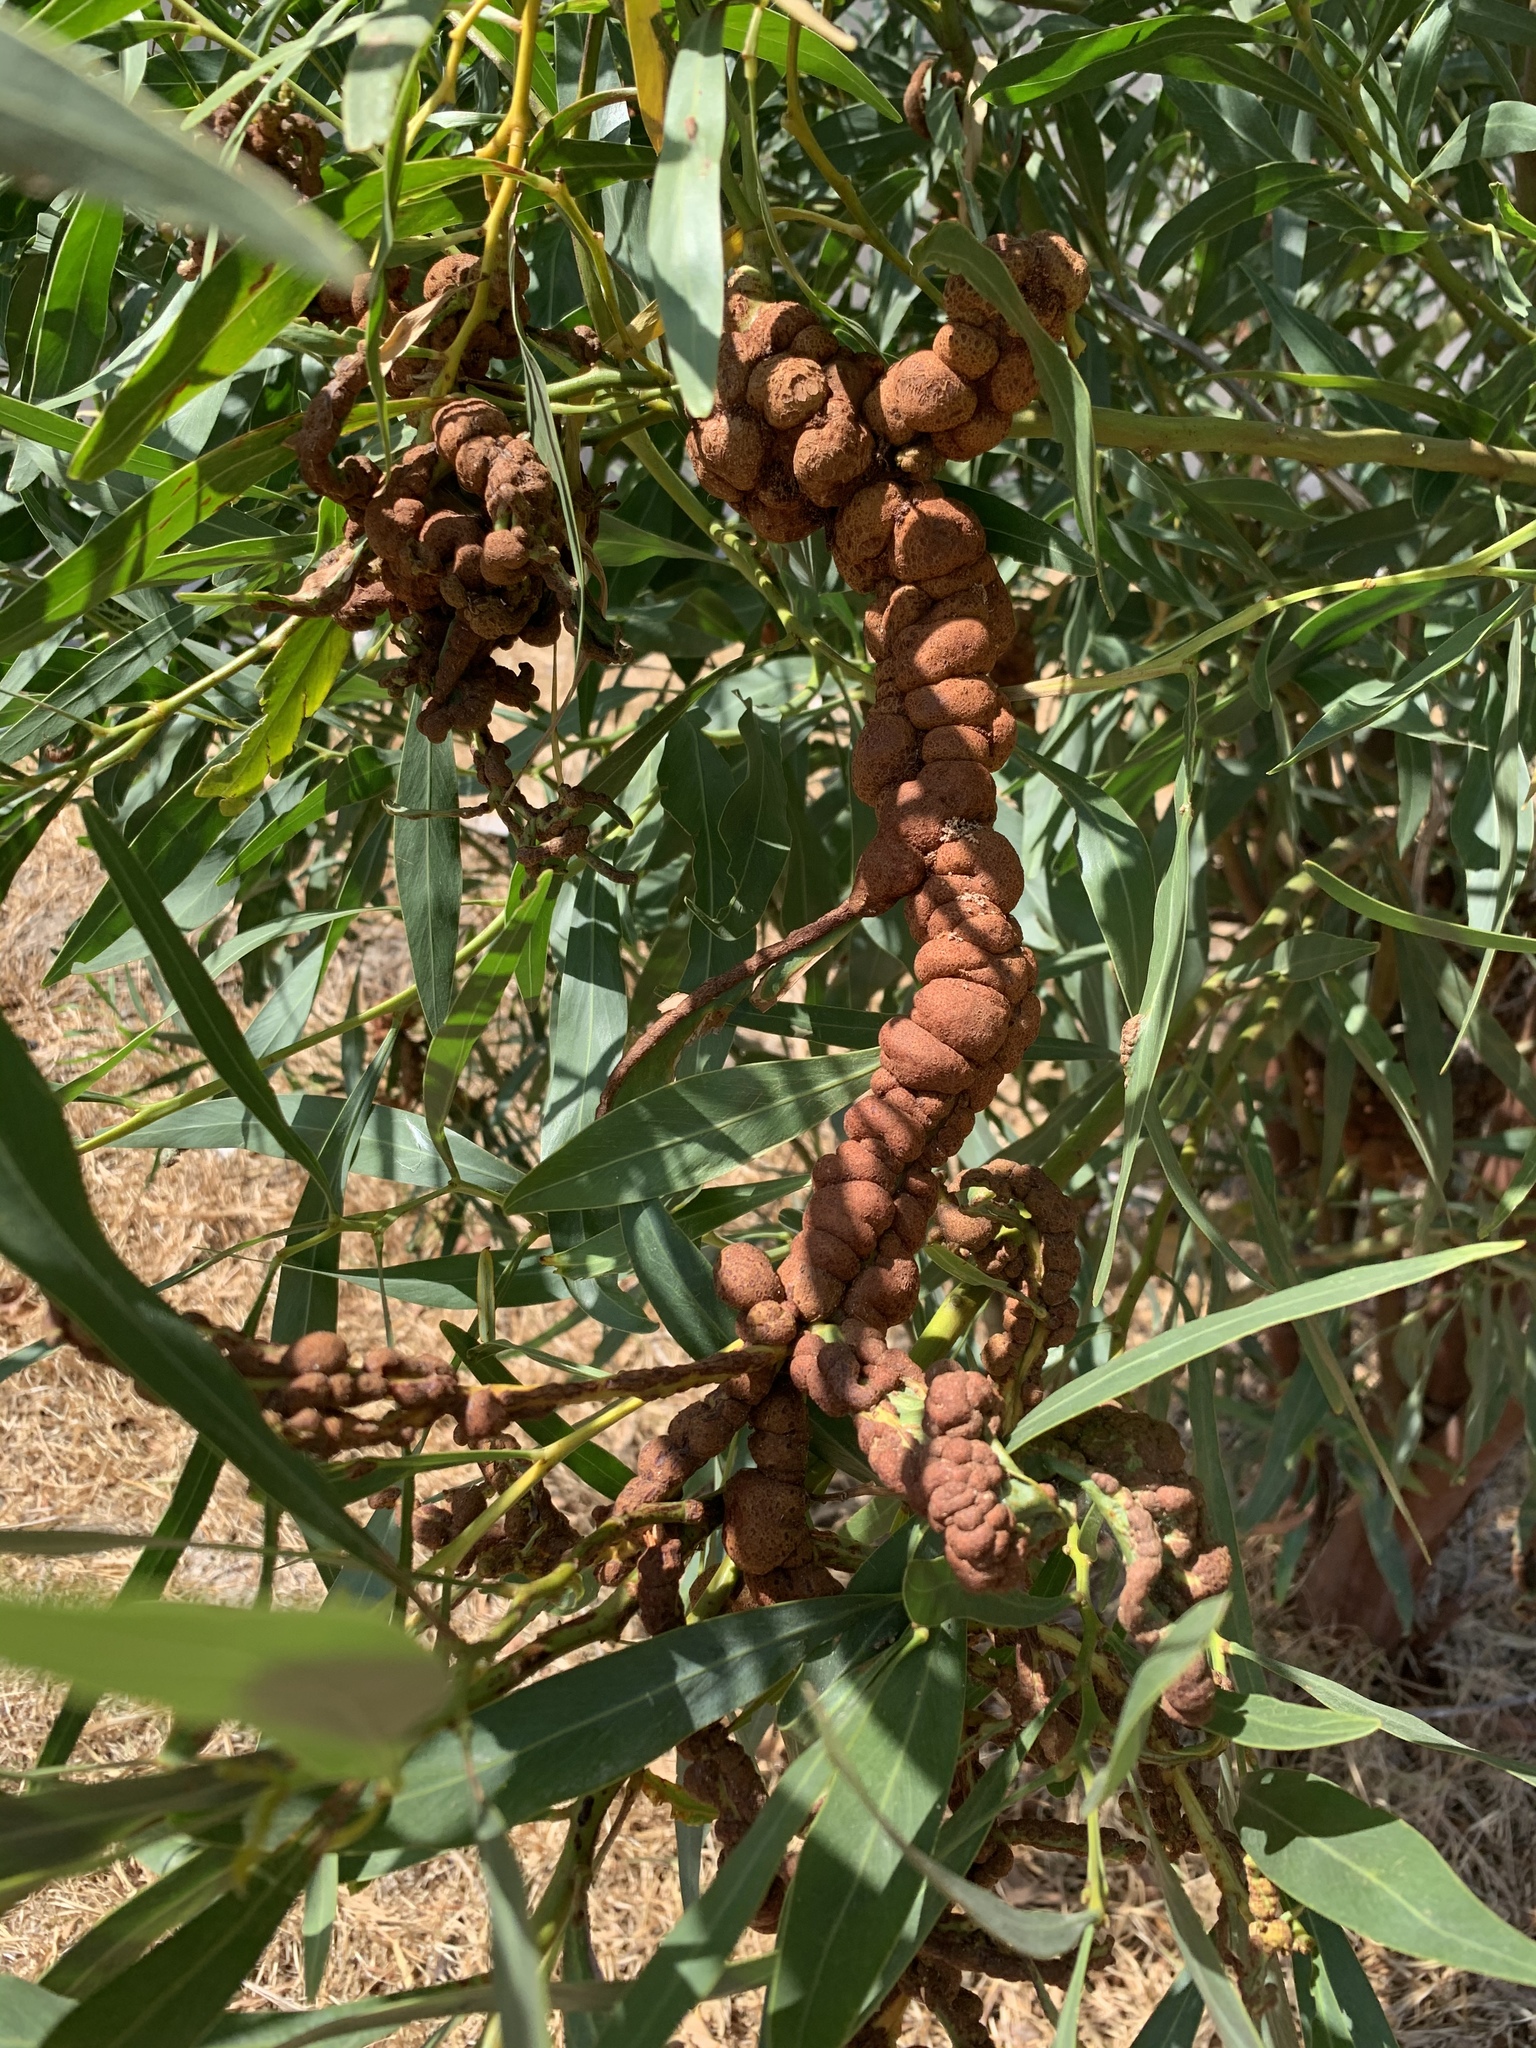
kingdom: Fungi
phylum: Basidiomycota
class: Pucciniomycetes
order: Pucciniales
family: Uromycladiaceae
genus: Uromycladium
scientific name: Uromycladium morrisii
